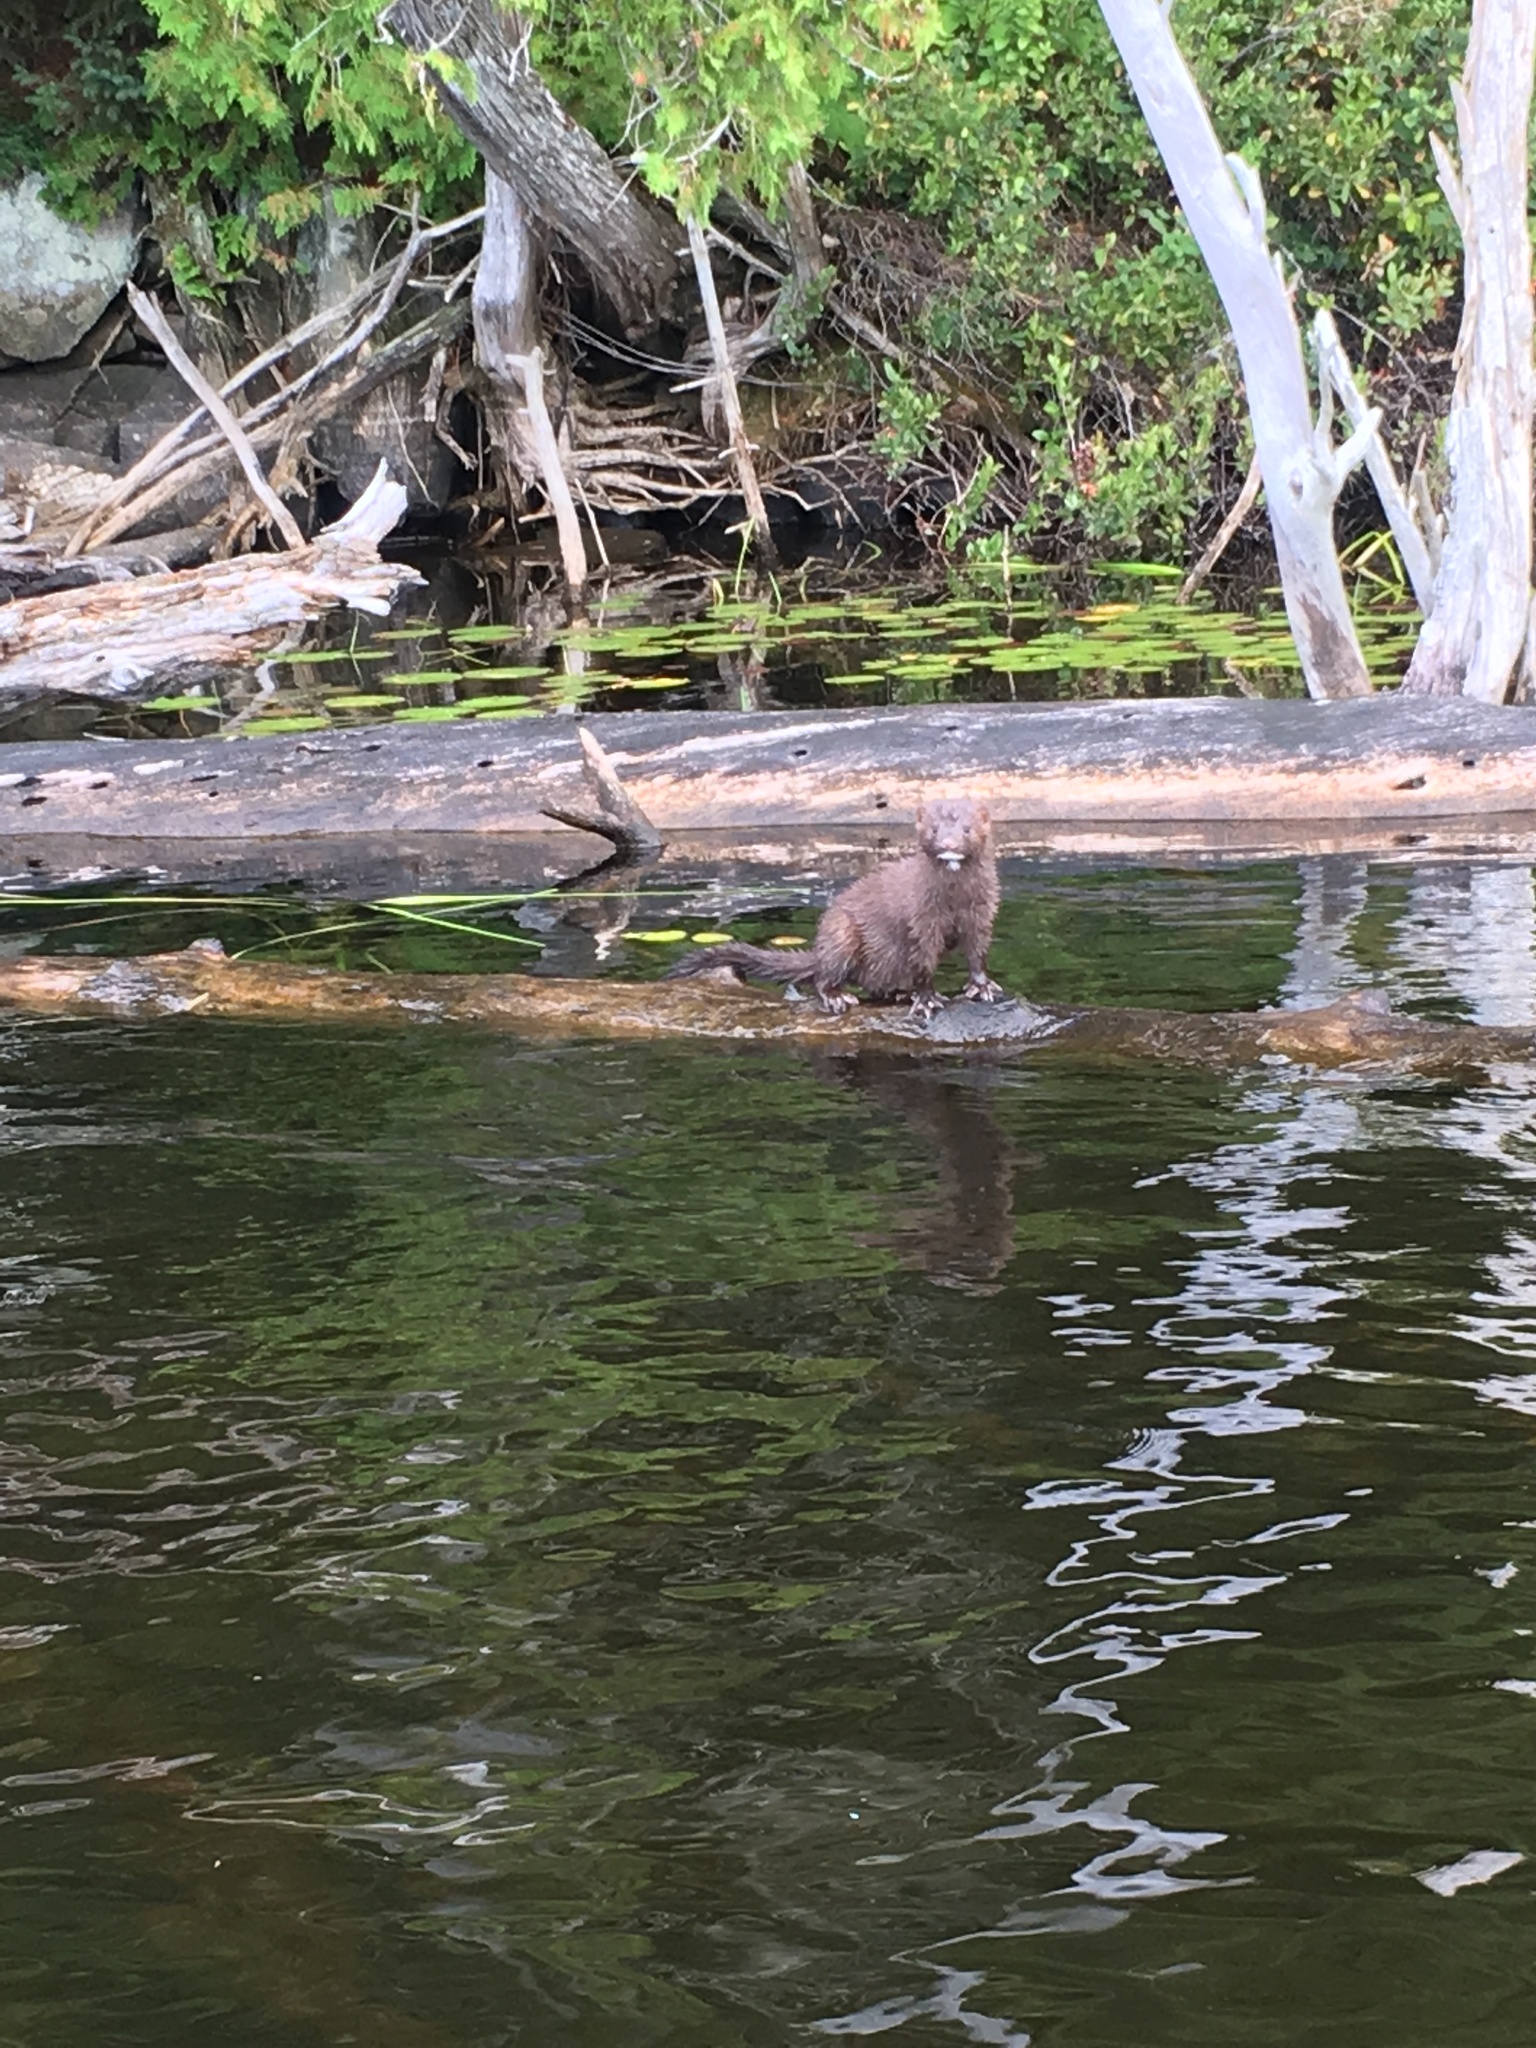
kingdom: Animalia
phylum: Chordata
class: Mammalia
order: Carnivora
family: Mustelidae
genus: Mustela
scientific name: Mustela
